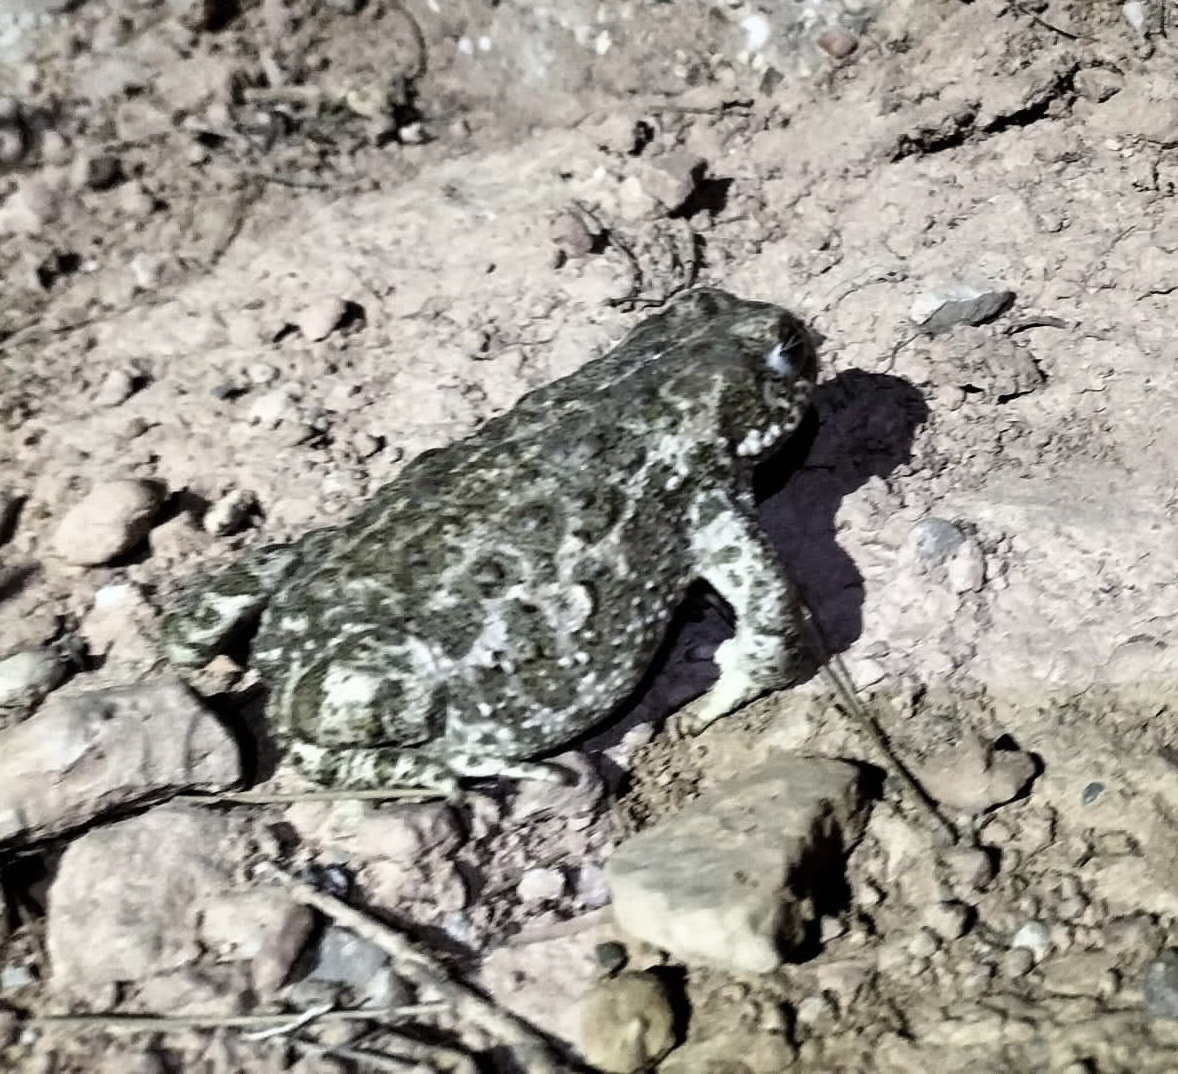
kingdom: Animalia
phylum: Chordata
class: Amphibia
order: Anura
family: Bufonidae
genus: Epidalea
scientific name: Epidalea calamita
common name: Natterjack toad
